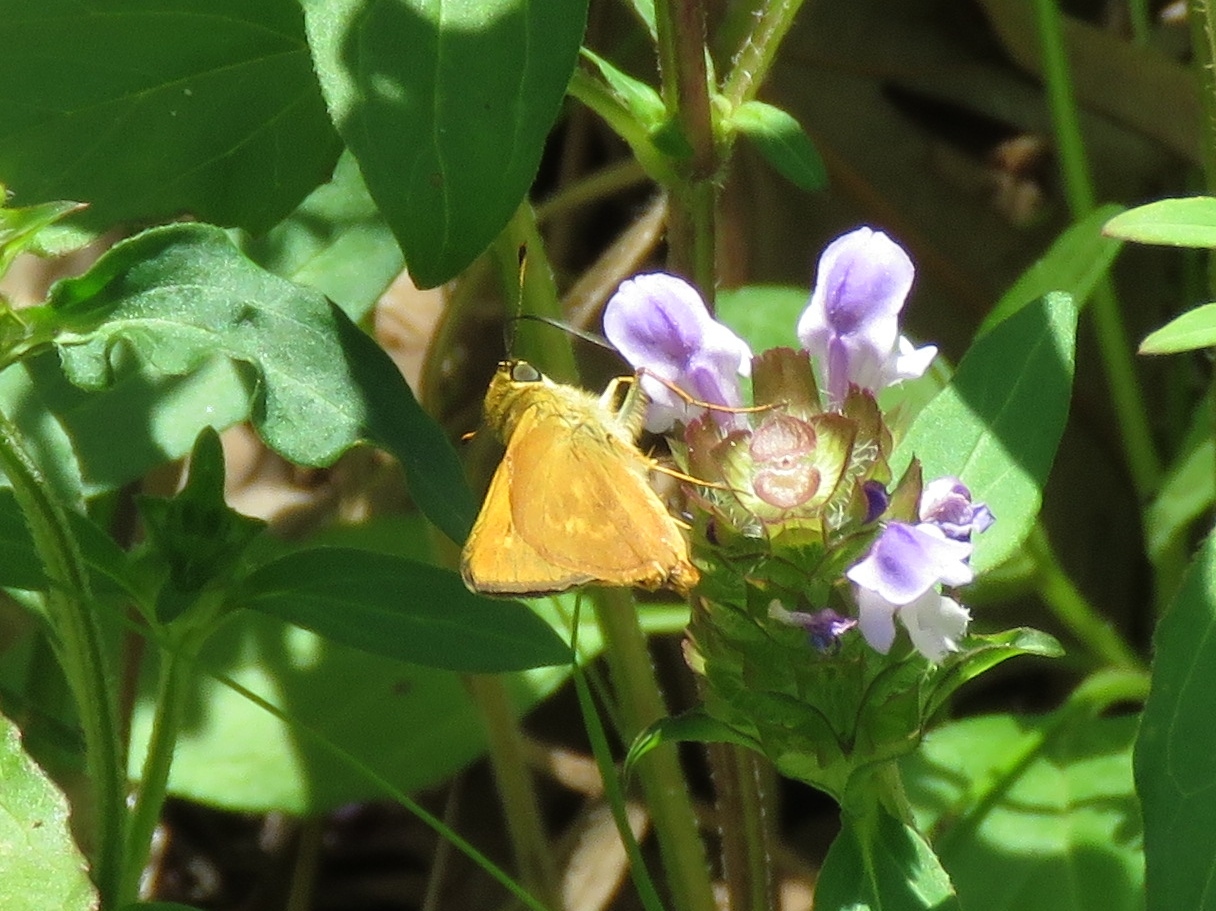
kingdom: Animalia
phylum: Arthropoda
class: Insecta
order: Lepidoptera
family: Hesperiidae
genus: Polites
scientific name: Polites otho
